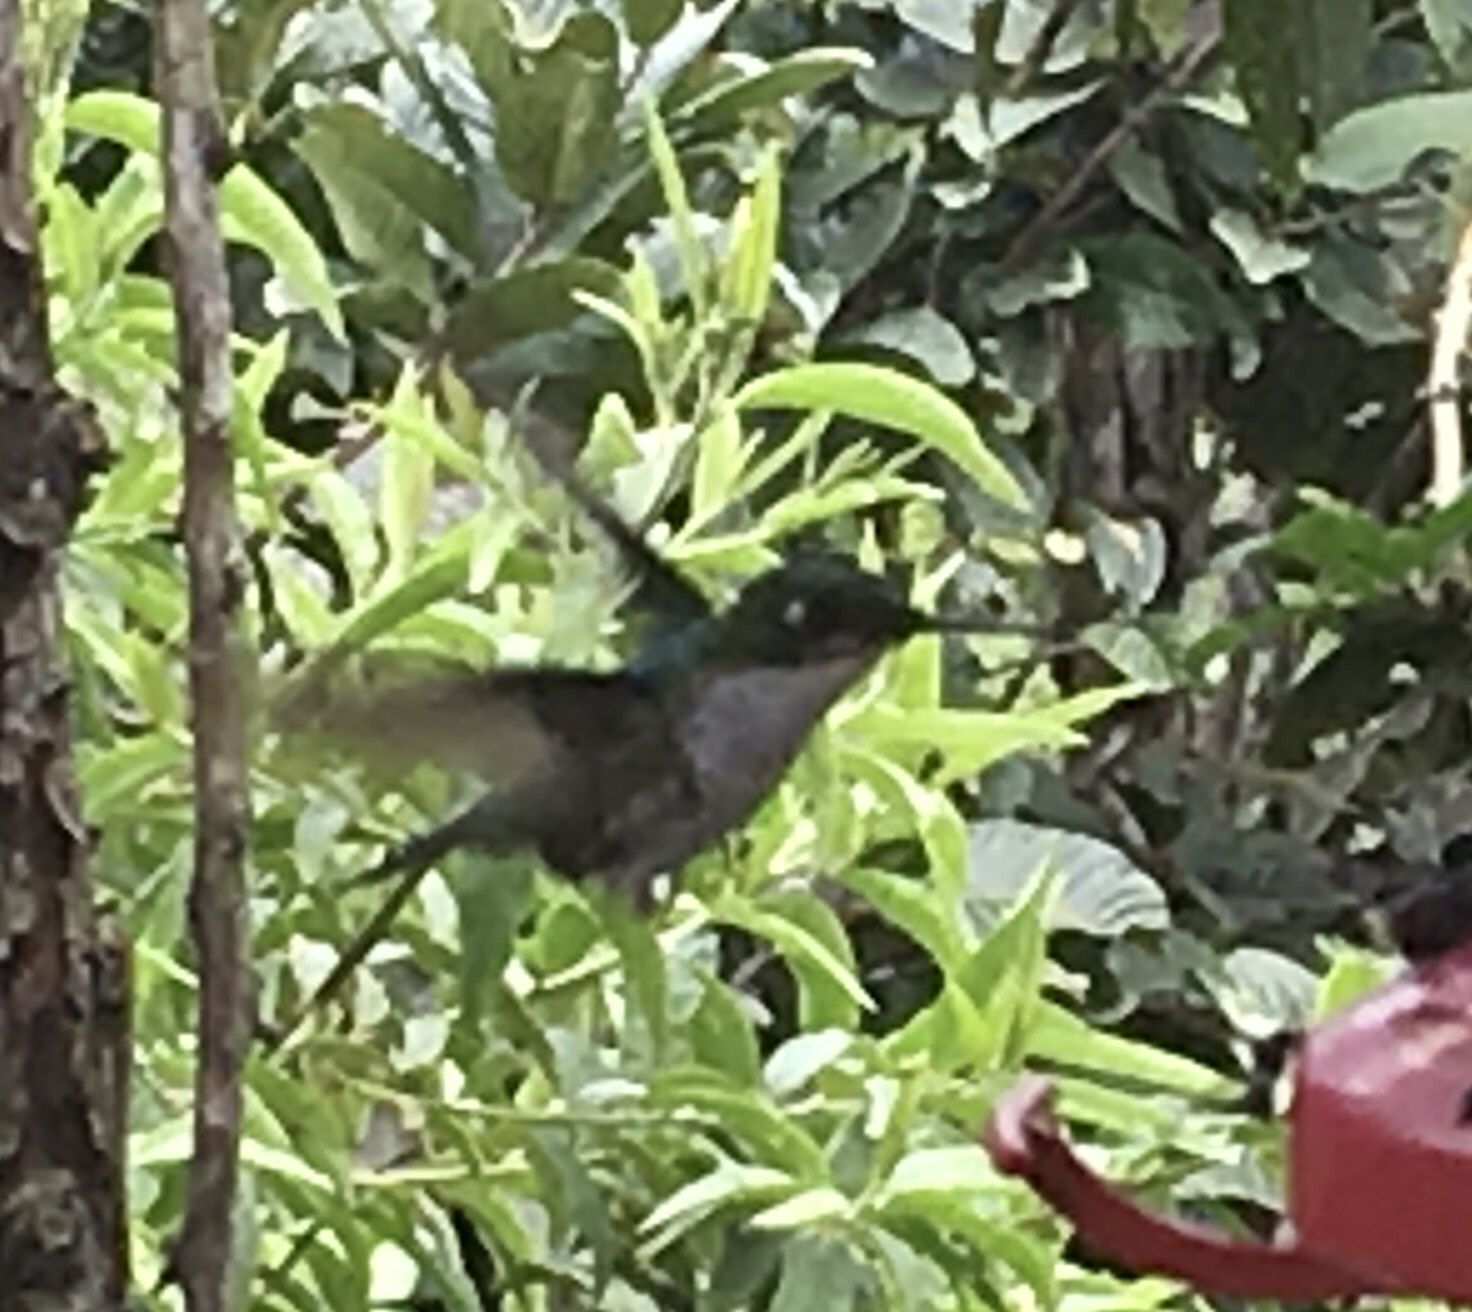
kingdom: Animalia
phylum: Chordata
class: Aves
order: Apodiformes
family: Trochilidae
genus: Ocreatus
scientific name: Ocreatus underwoodii
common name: Booted racket-tail
